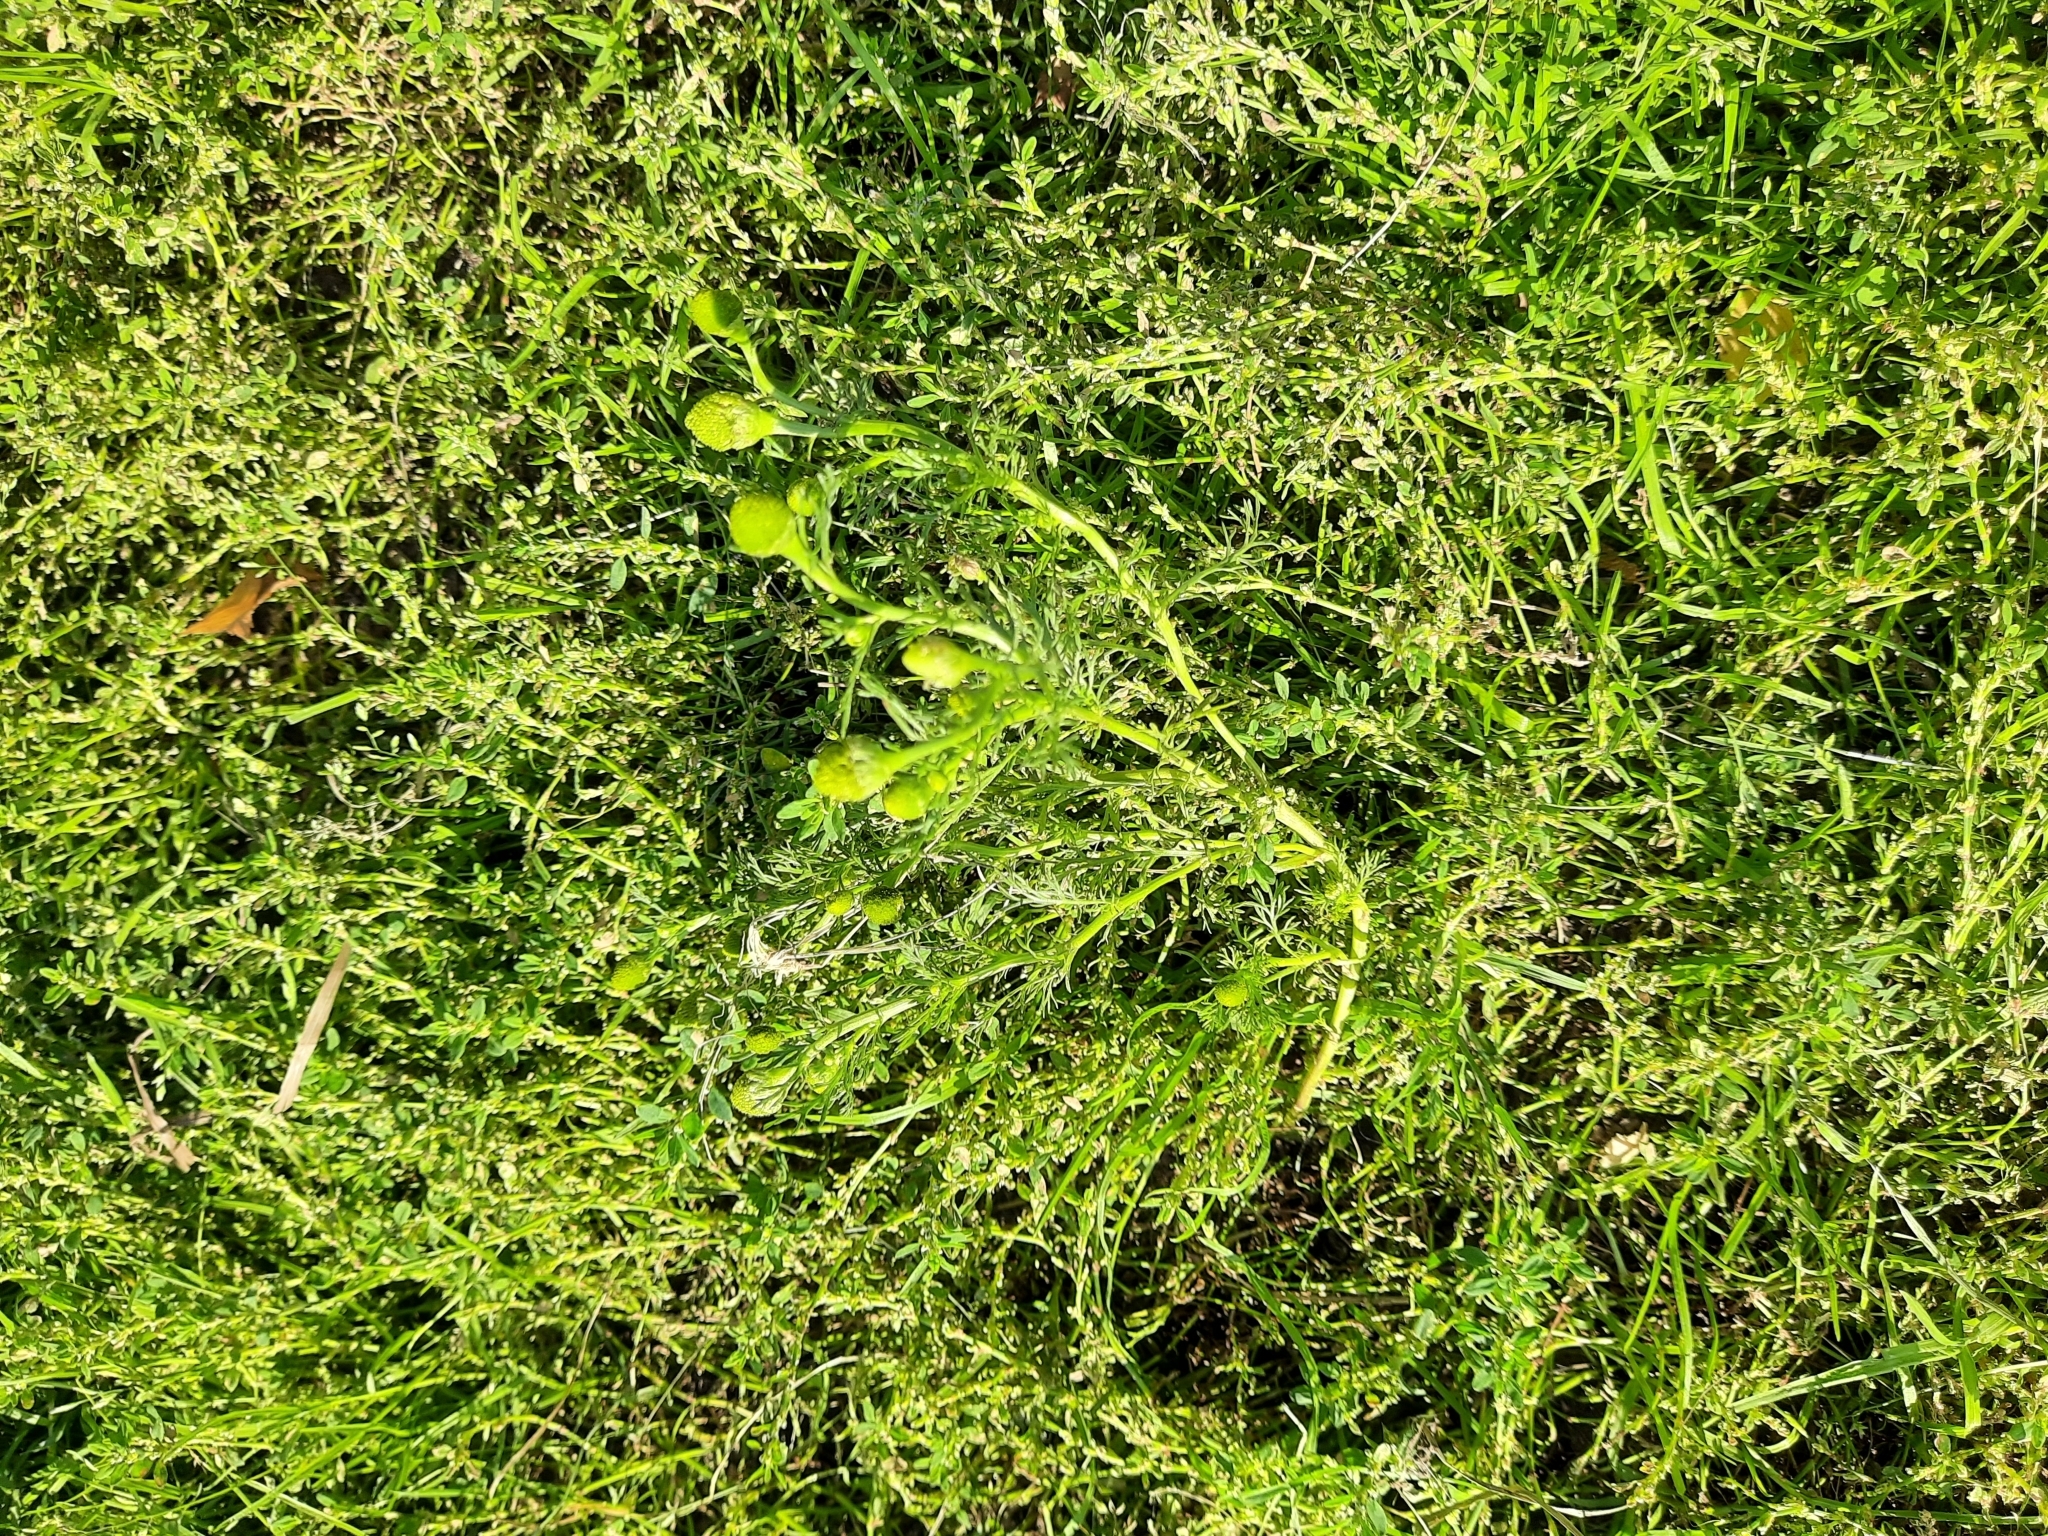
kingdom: Plantae
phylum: Tracheophyta
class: Magnoliopsida
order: Asterales
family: Asteraceae
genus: Matricaria
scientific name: Matricaria discoidea
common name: Disc mayweed
